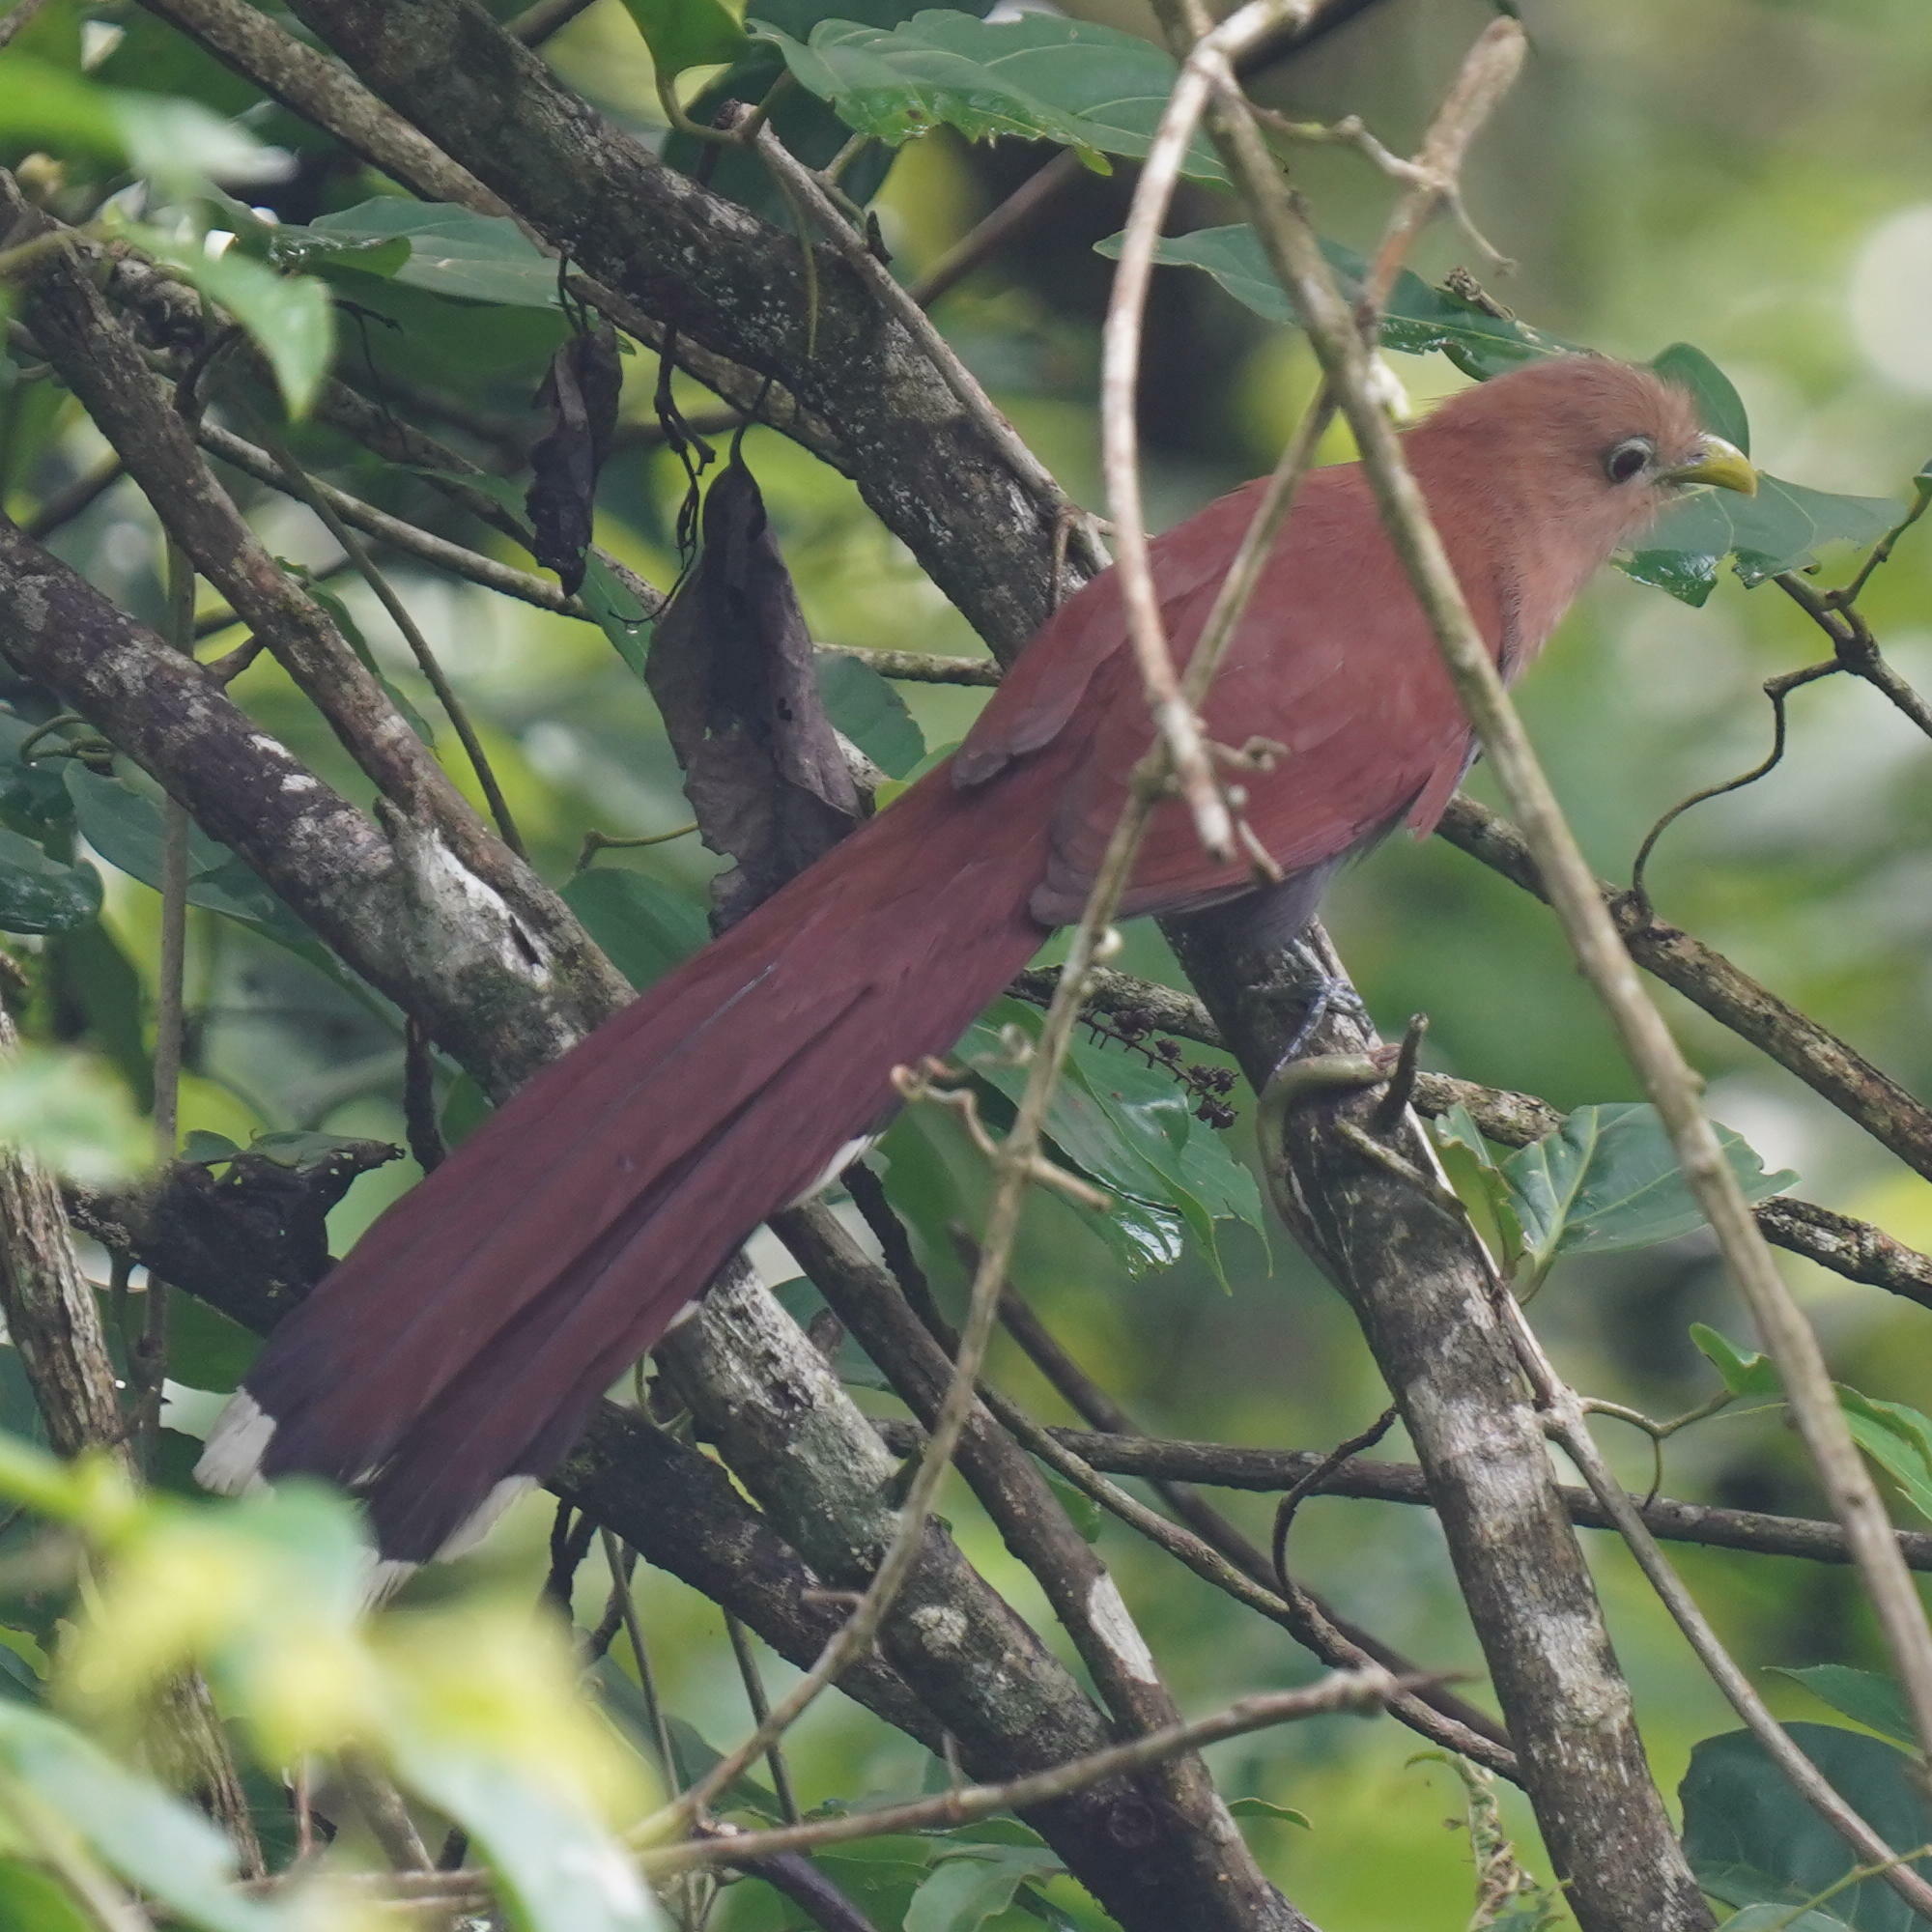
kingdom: Animalia
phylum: Chordata
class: Aves
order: Cuculiformes
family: Cuculidae
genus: Piaya
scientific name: Piaya cayana
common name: Squirrel cuckoo
